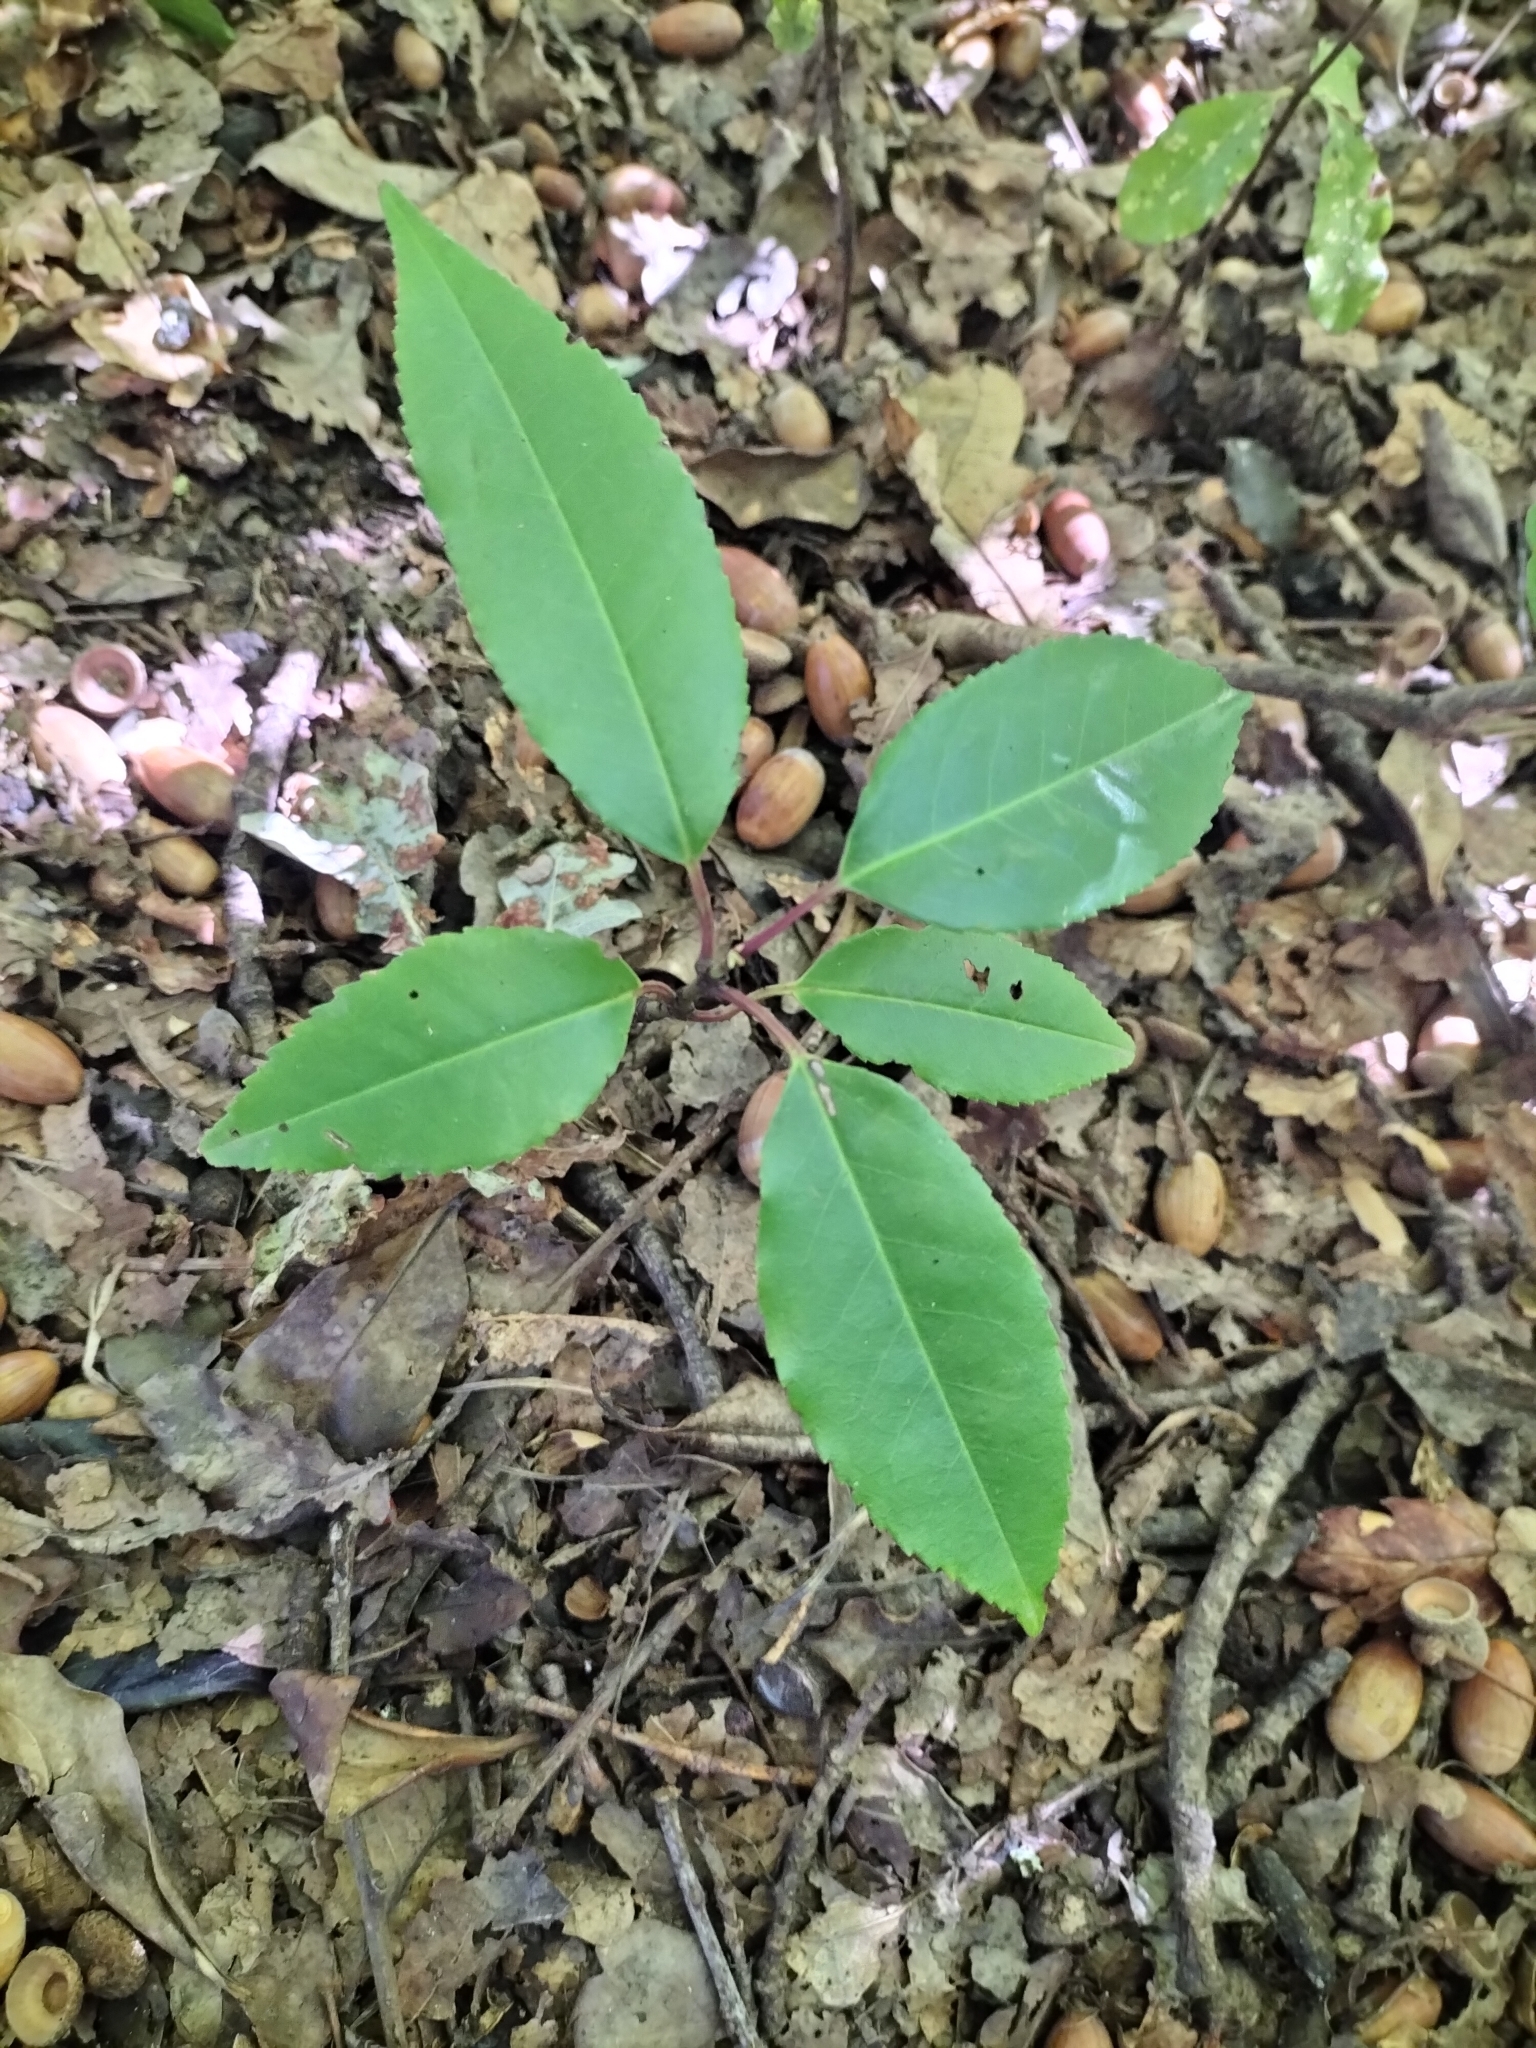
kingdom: Plantae
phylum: Tracheophyta
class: Magnoliopsida
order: Rosales
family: Rosaceae
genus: Prunus
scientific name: Prunus lusitanica
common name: Portugal laurel
